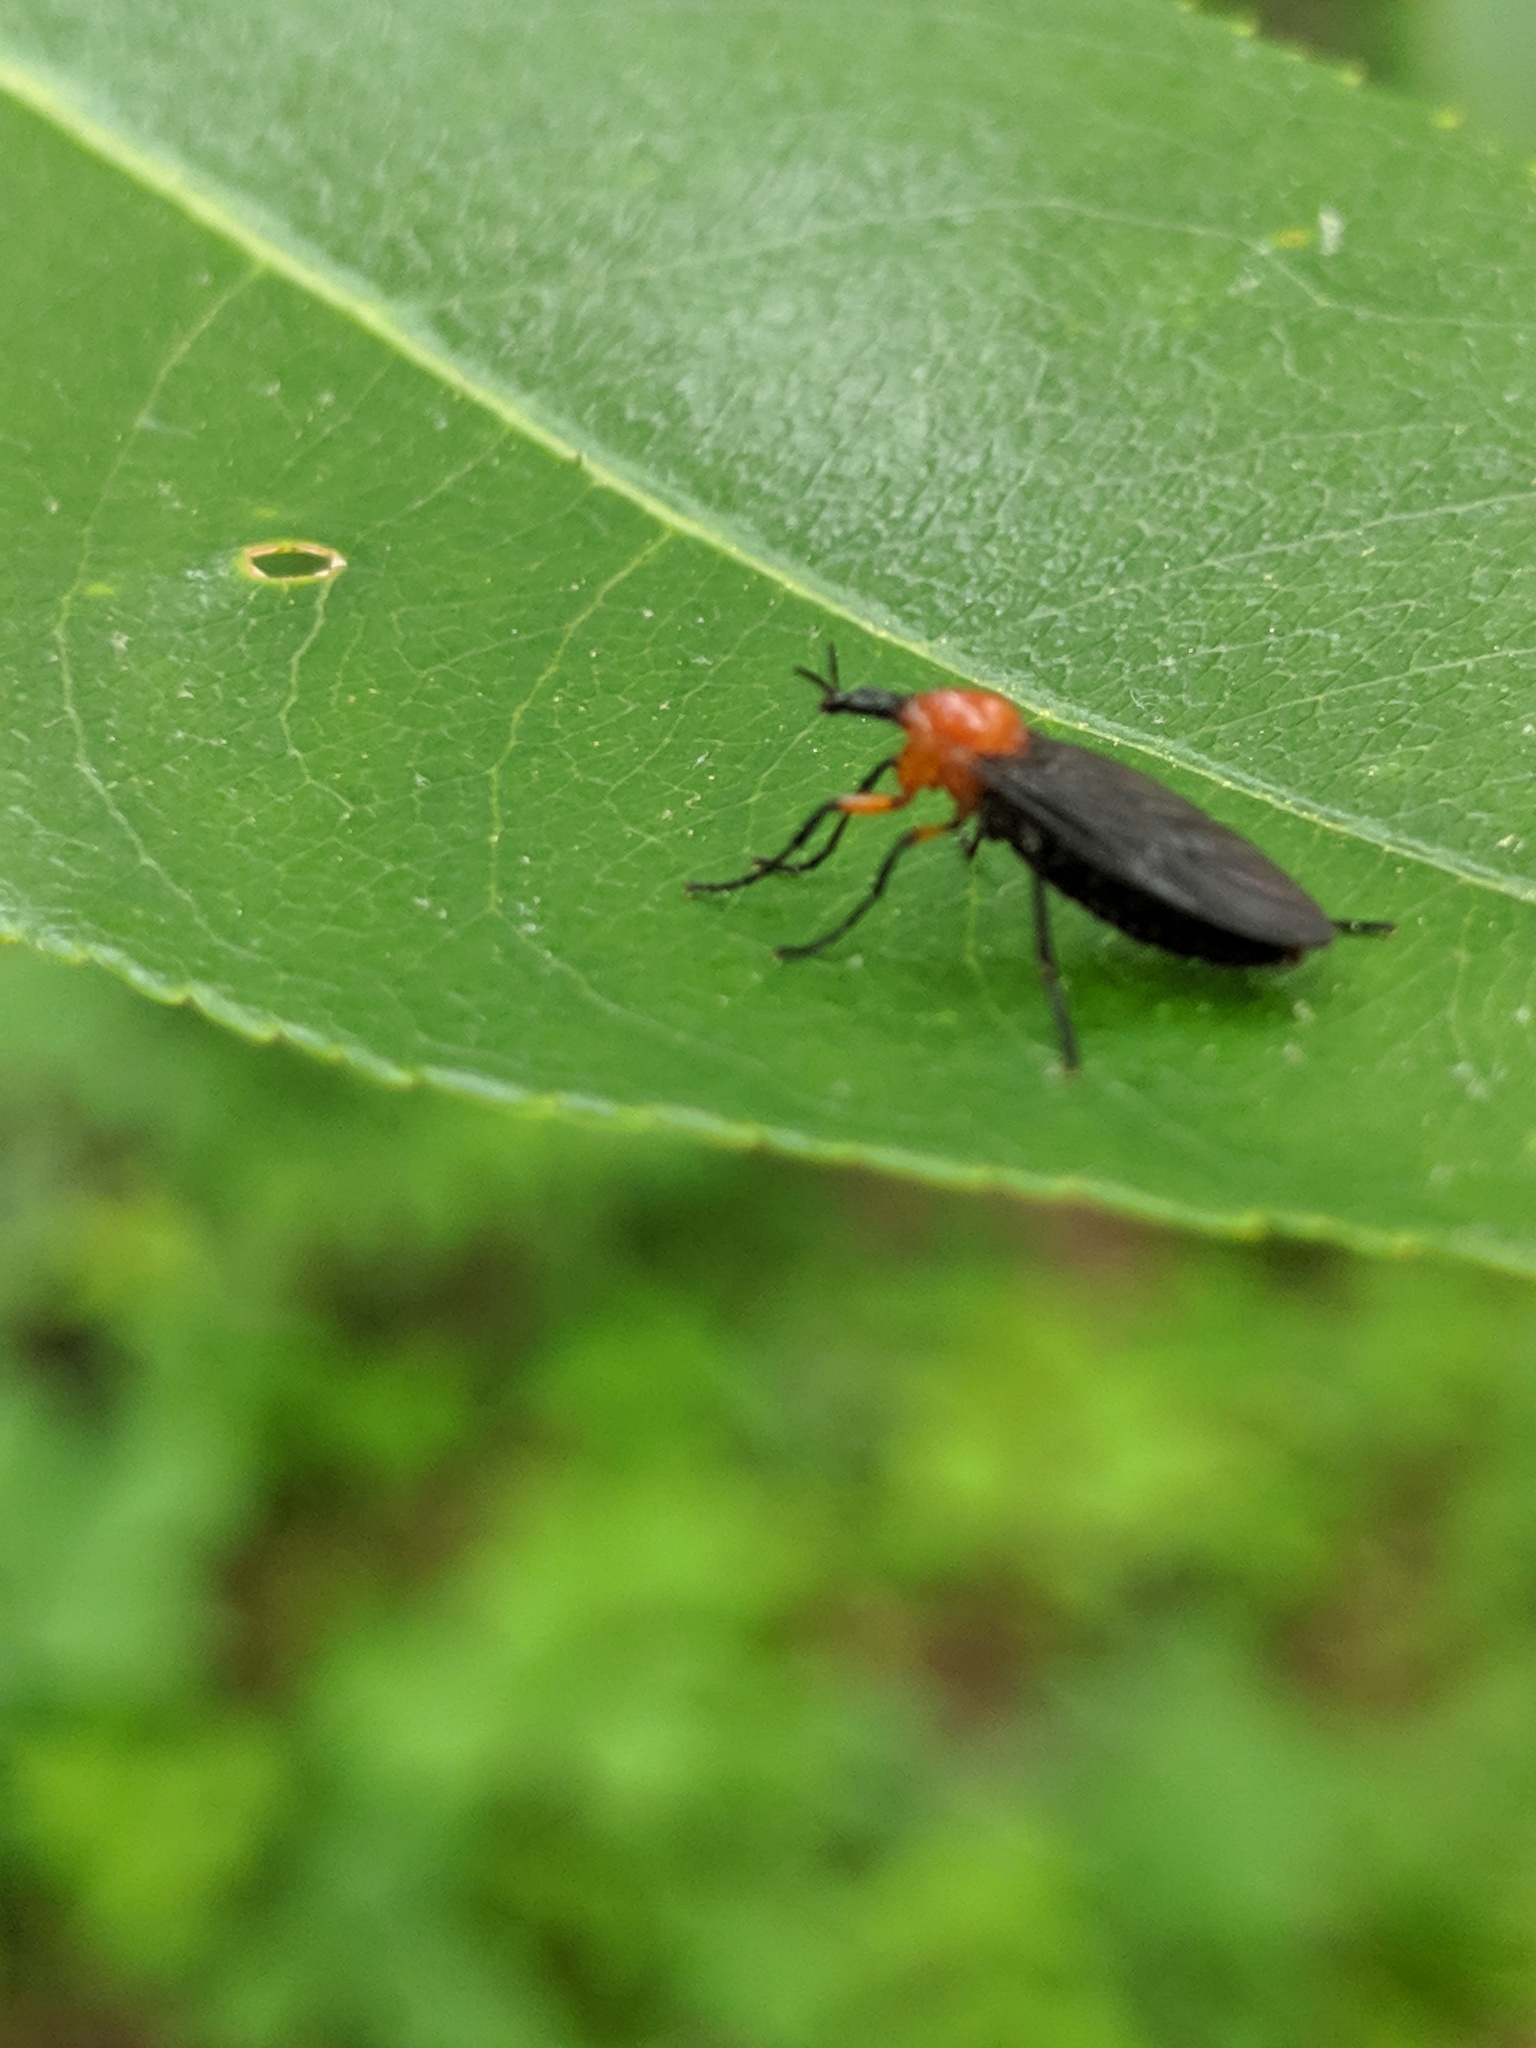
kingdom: Animalia
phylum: Arthropoda
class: Insecta
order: Diptera
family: Bibionidae
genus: Dilophus
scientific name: Dilophus spinipes
